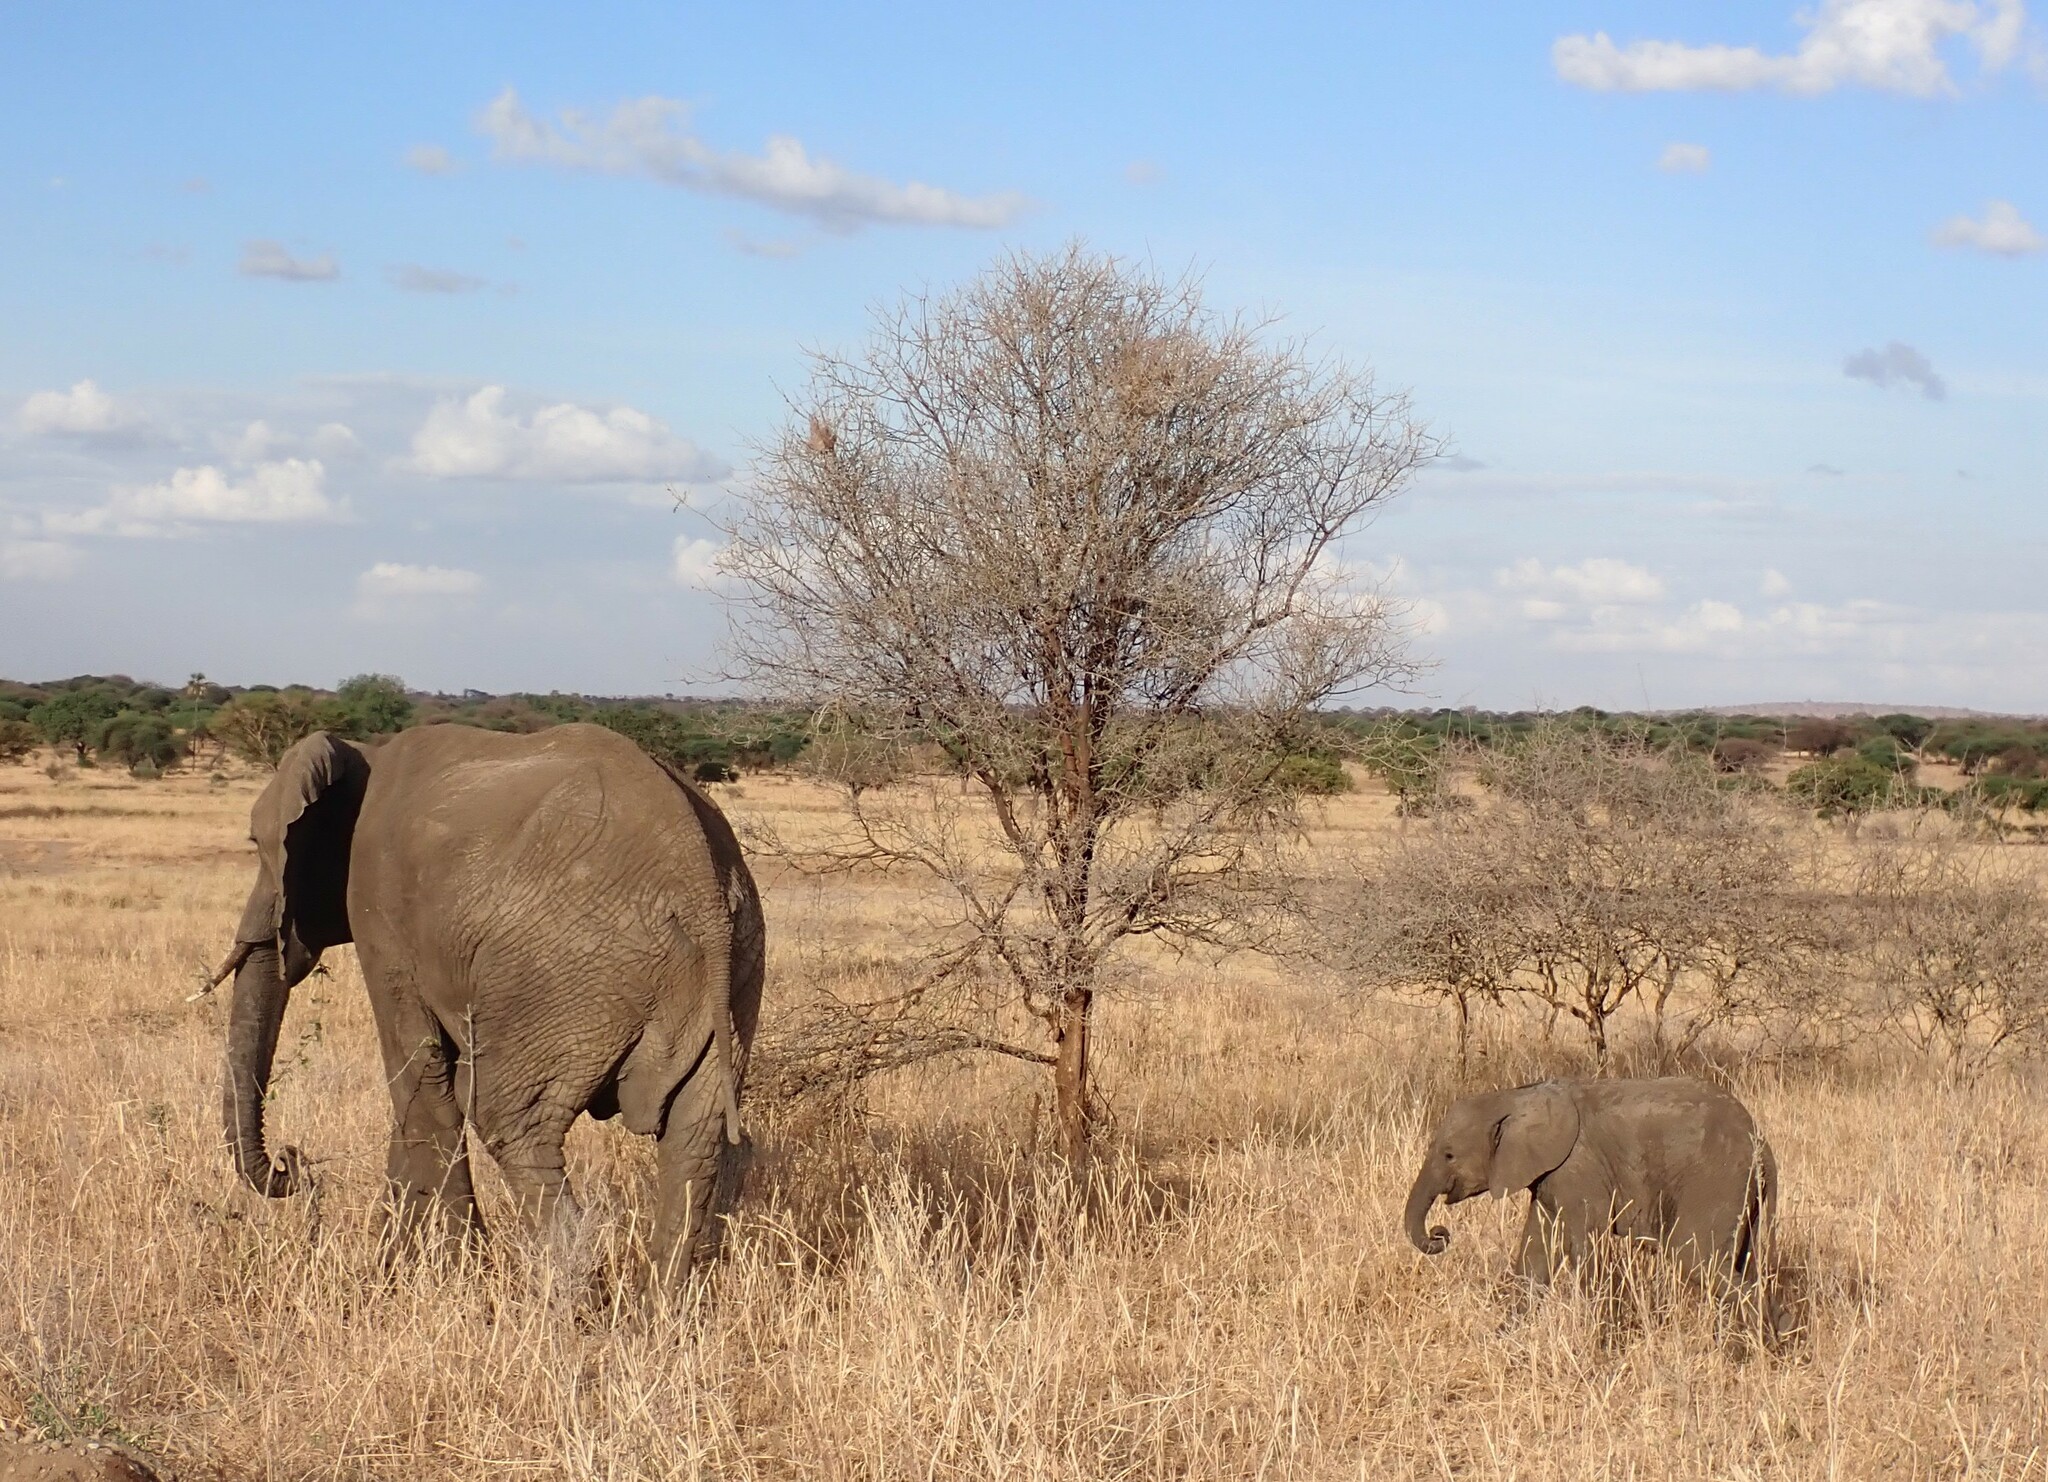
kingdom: Animalia
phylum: Chordata
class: Mammalia
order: Proboscidea
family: Elephantidae
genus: Loxodonta
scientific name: Loxodonta africana
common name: African elephant
